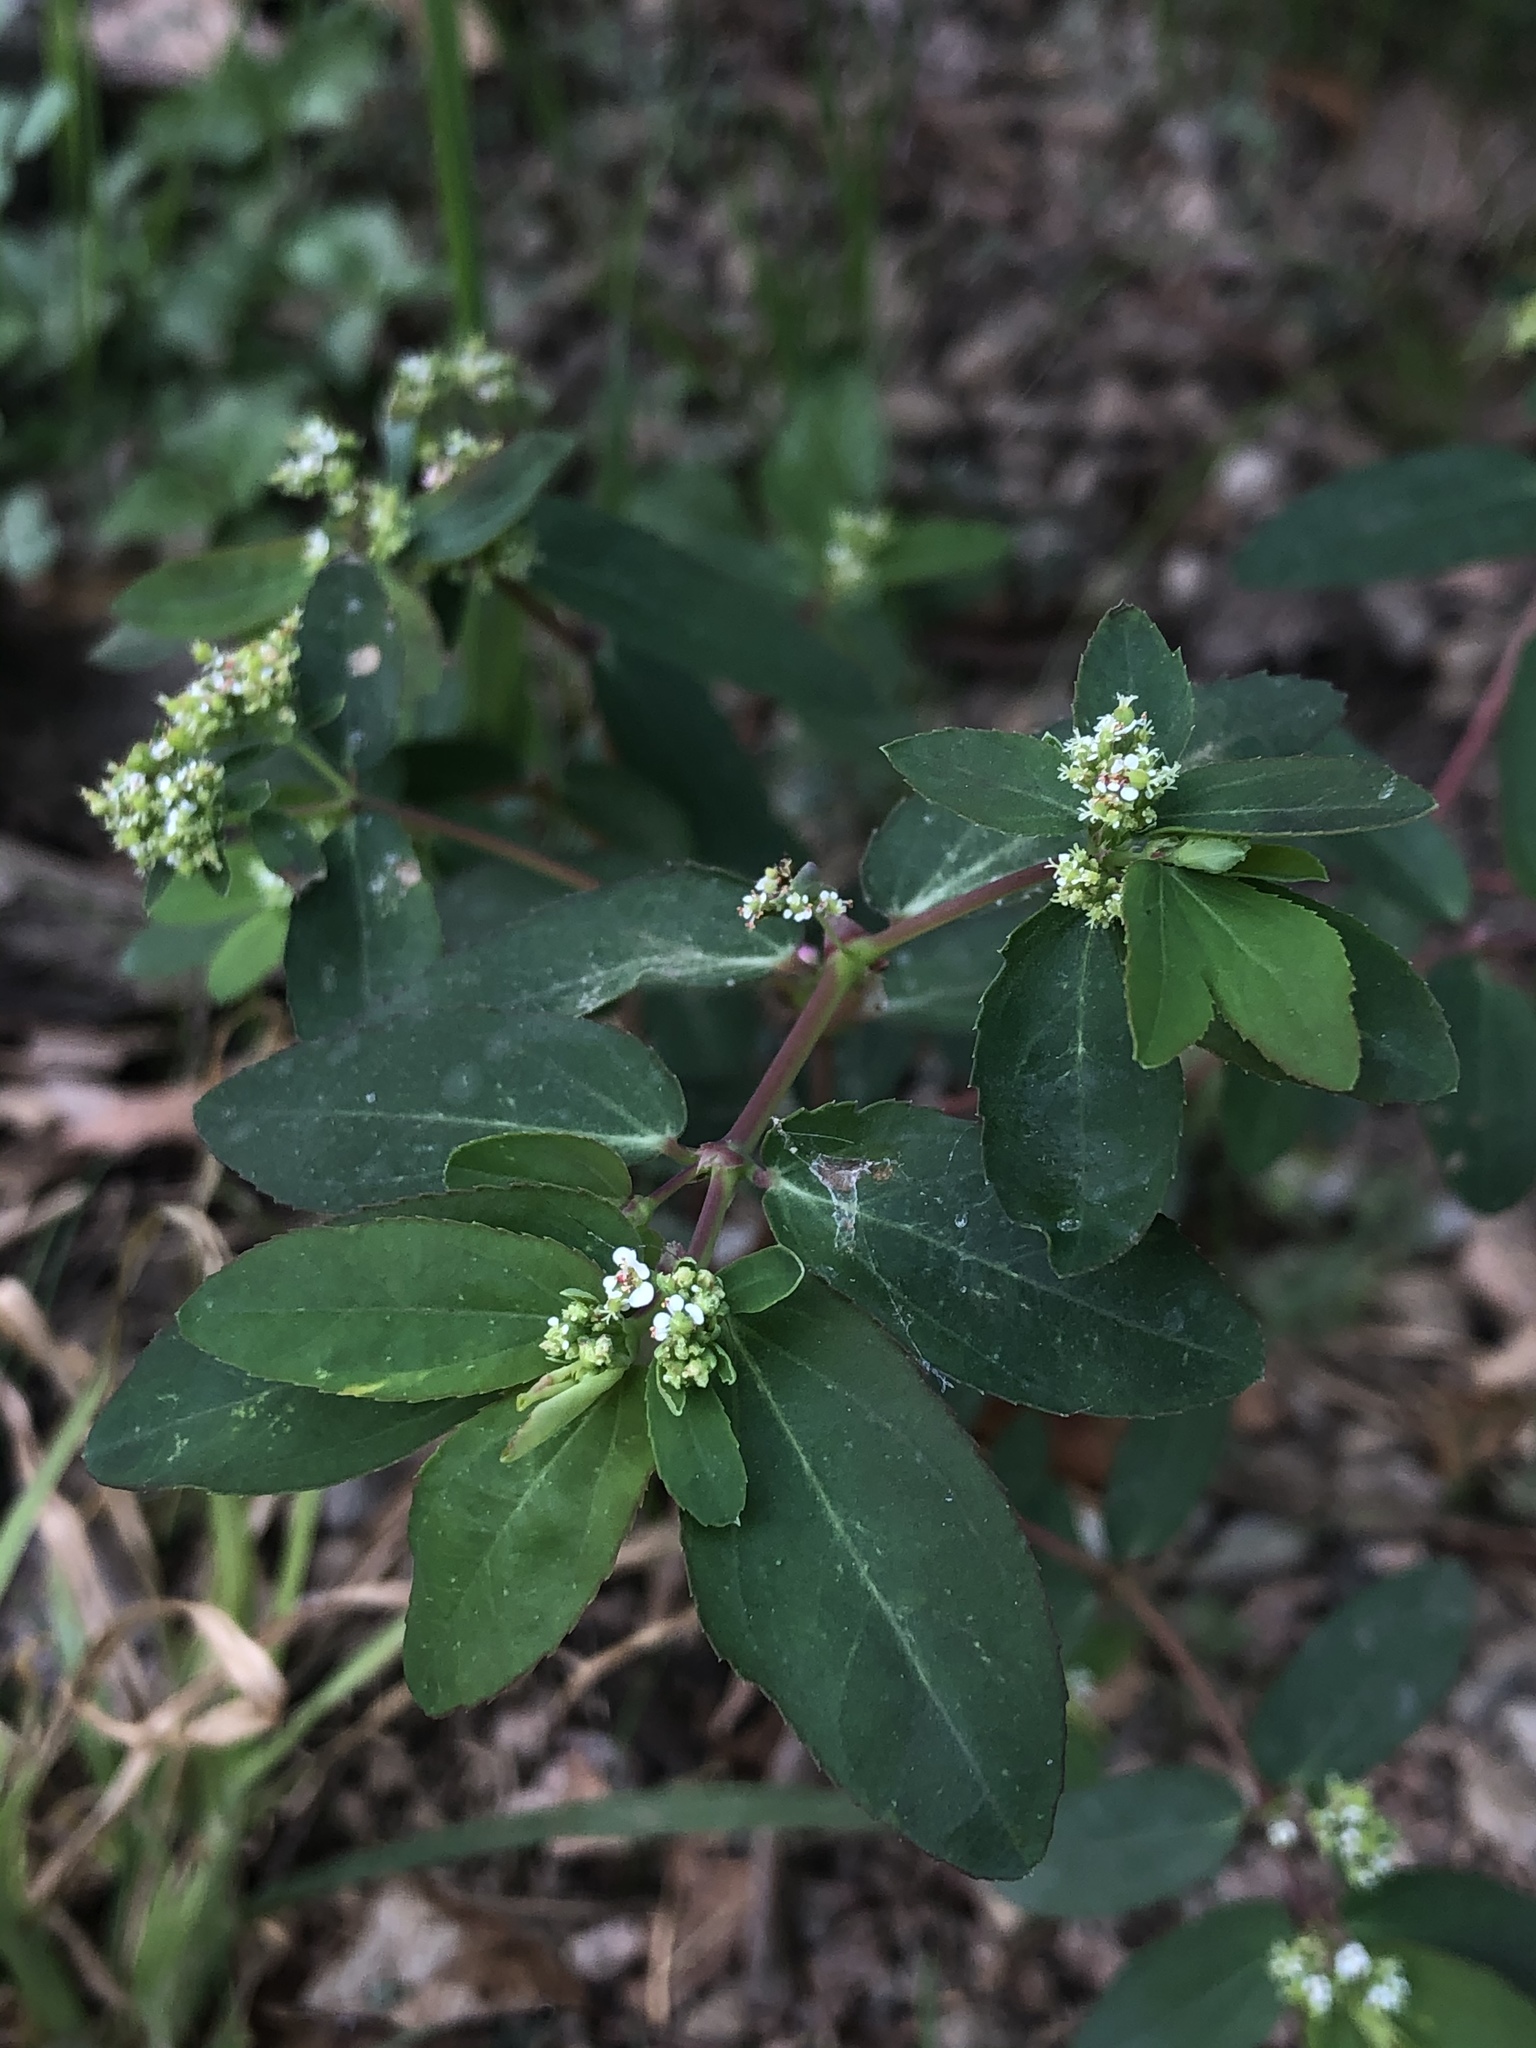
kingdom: Plantae
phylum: Tracheophyta
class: Magnoliopsida
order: Malpighiales
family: Euphorbiaceae
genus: Euphorbia
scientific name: Euphorbia hypericifolia
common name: Graceful sandmat
